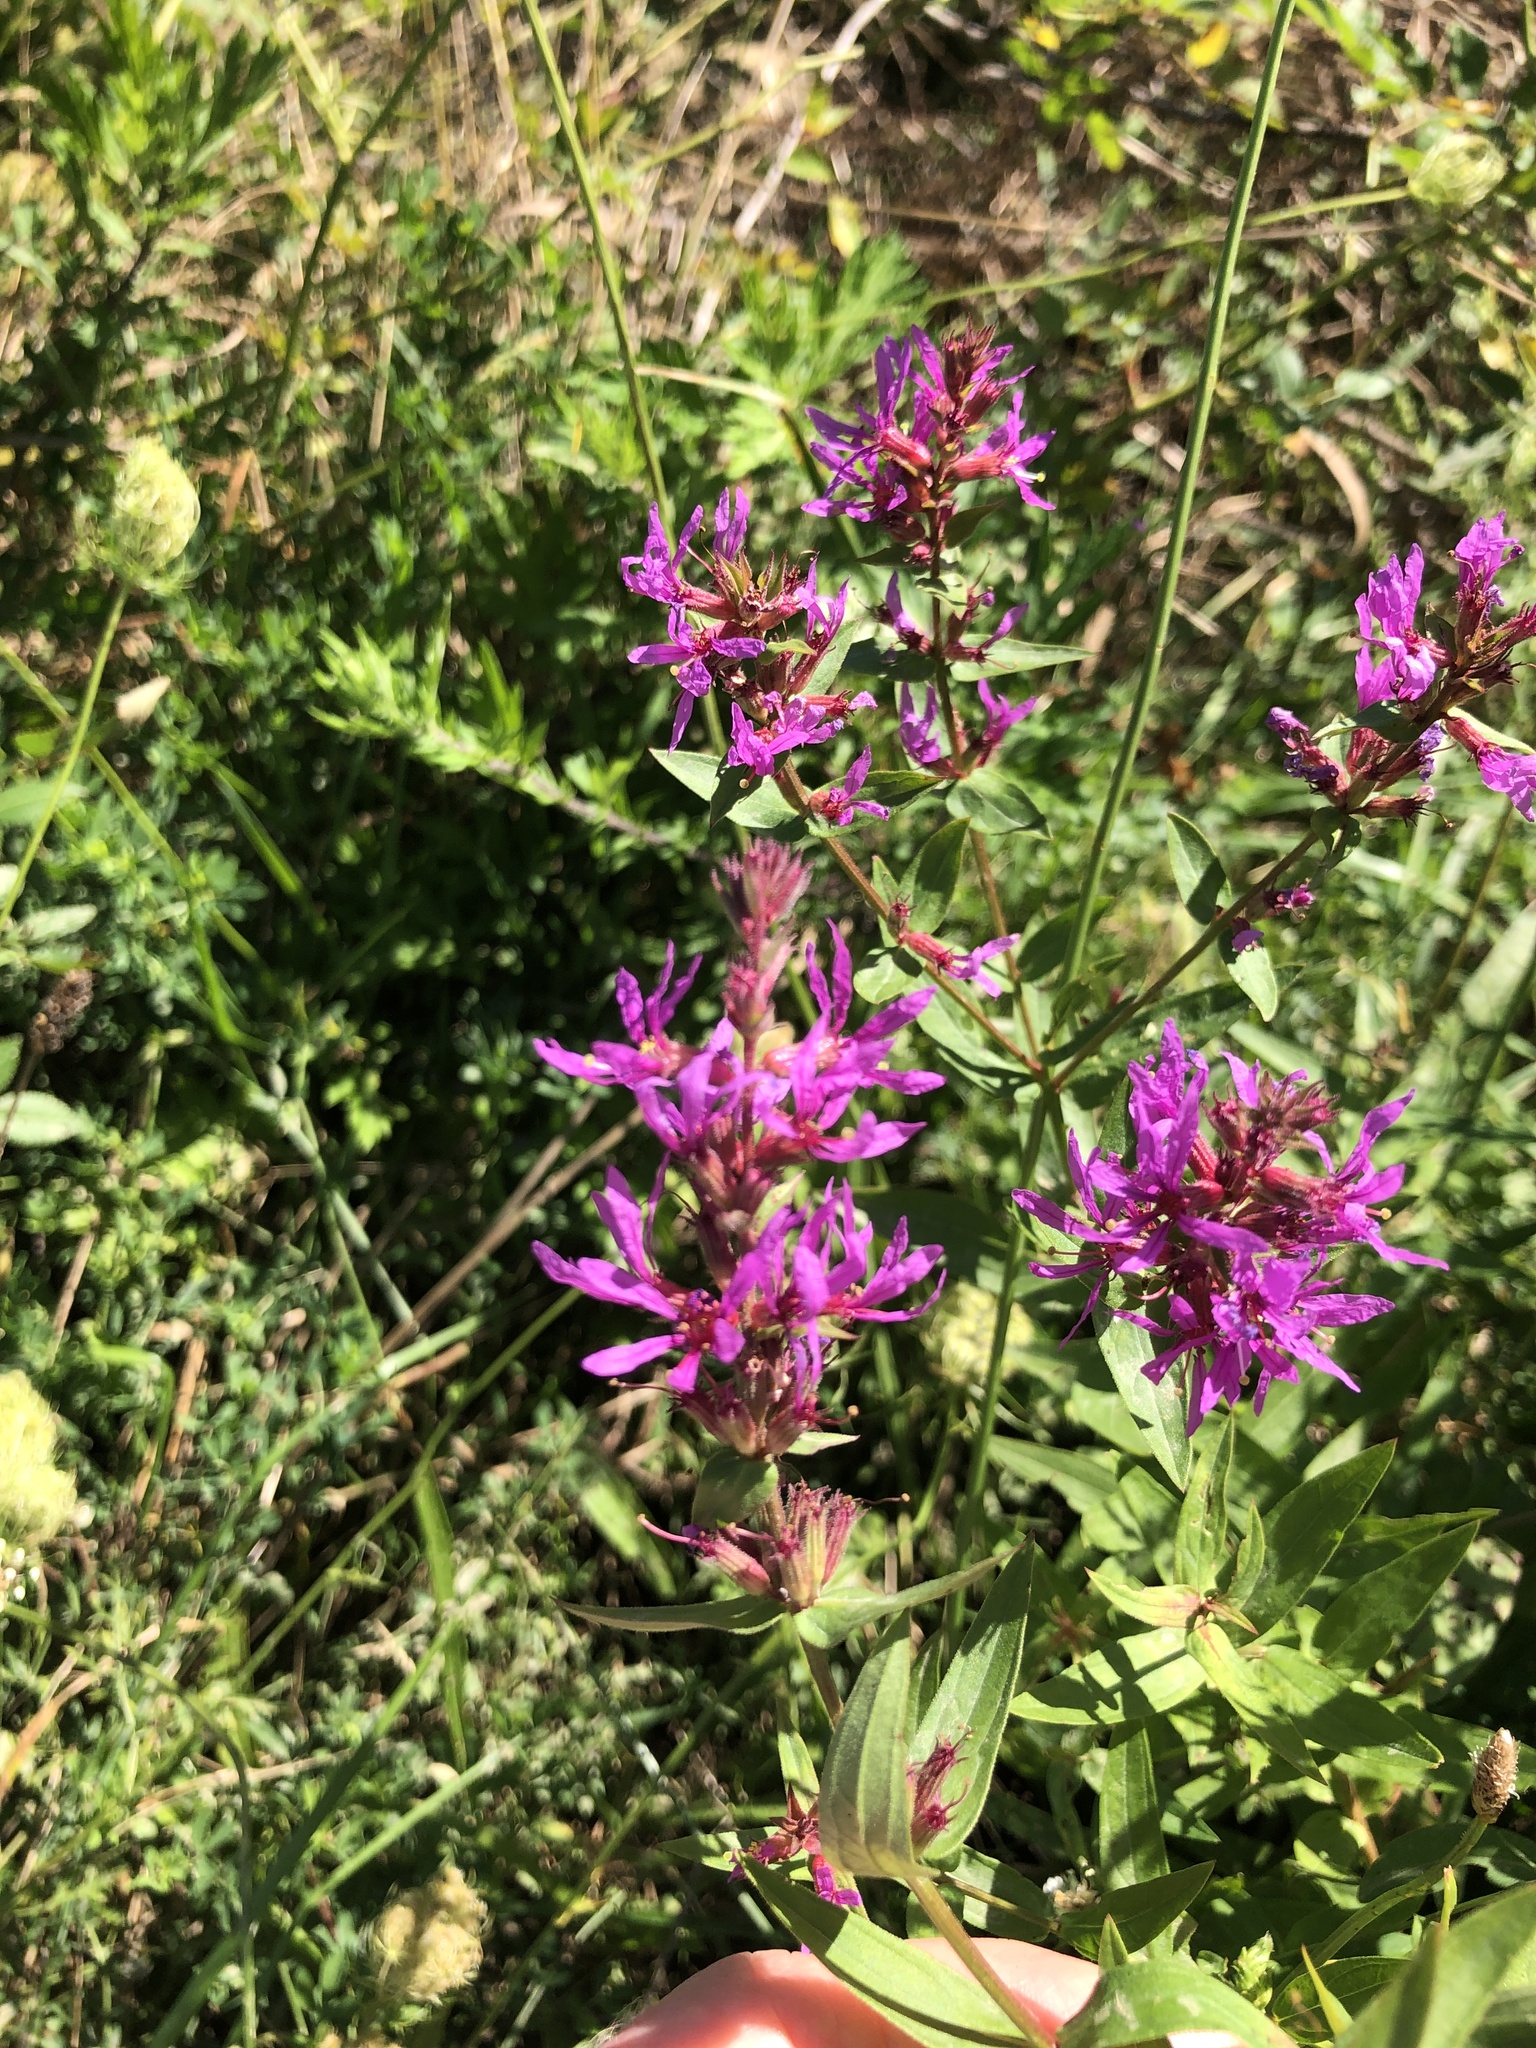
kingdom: Plantae
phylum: Tracheophyta
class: Magnoliopsida
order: Myrtales
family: Lythraceae
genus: Lythrum
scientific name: Lythrum salicaria
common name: Purple loosestrife
